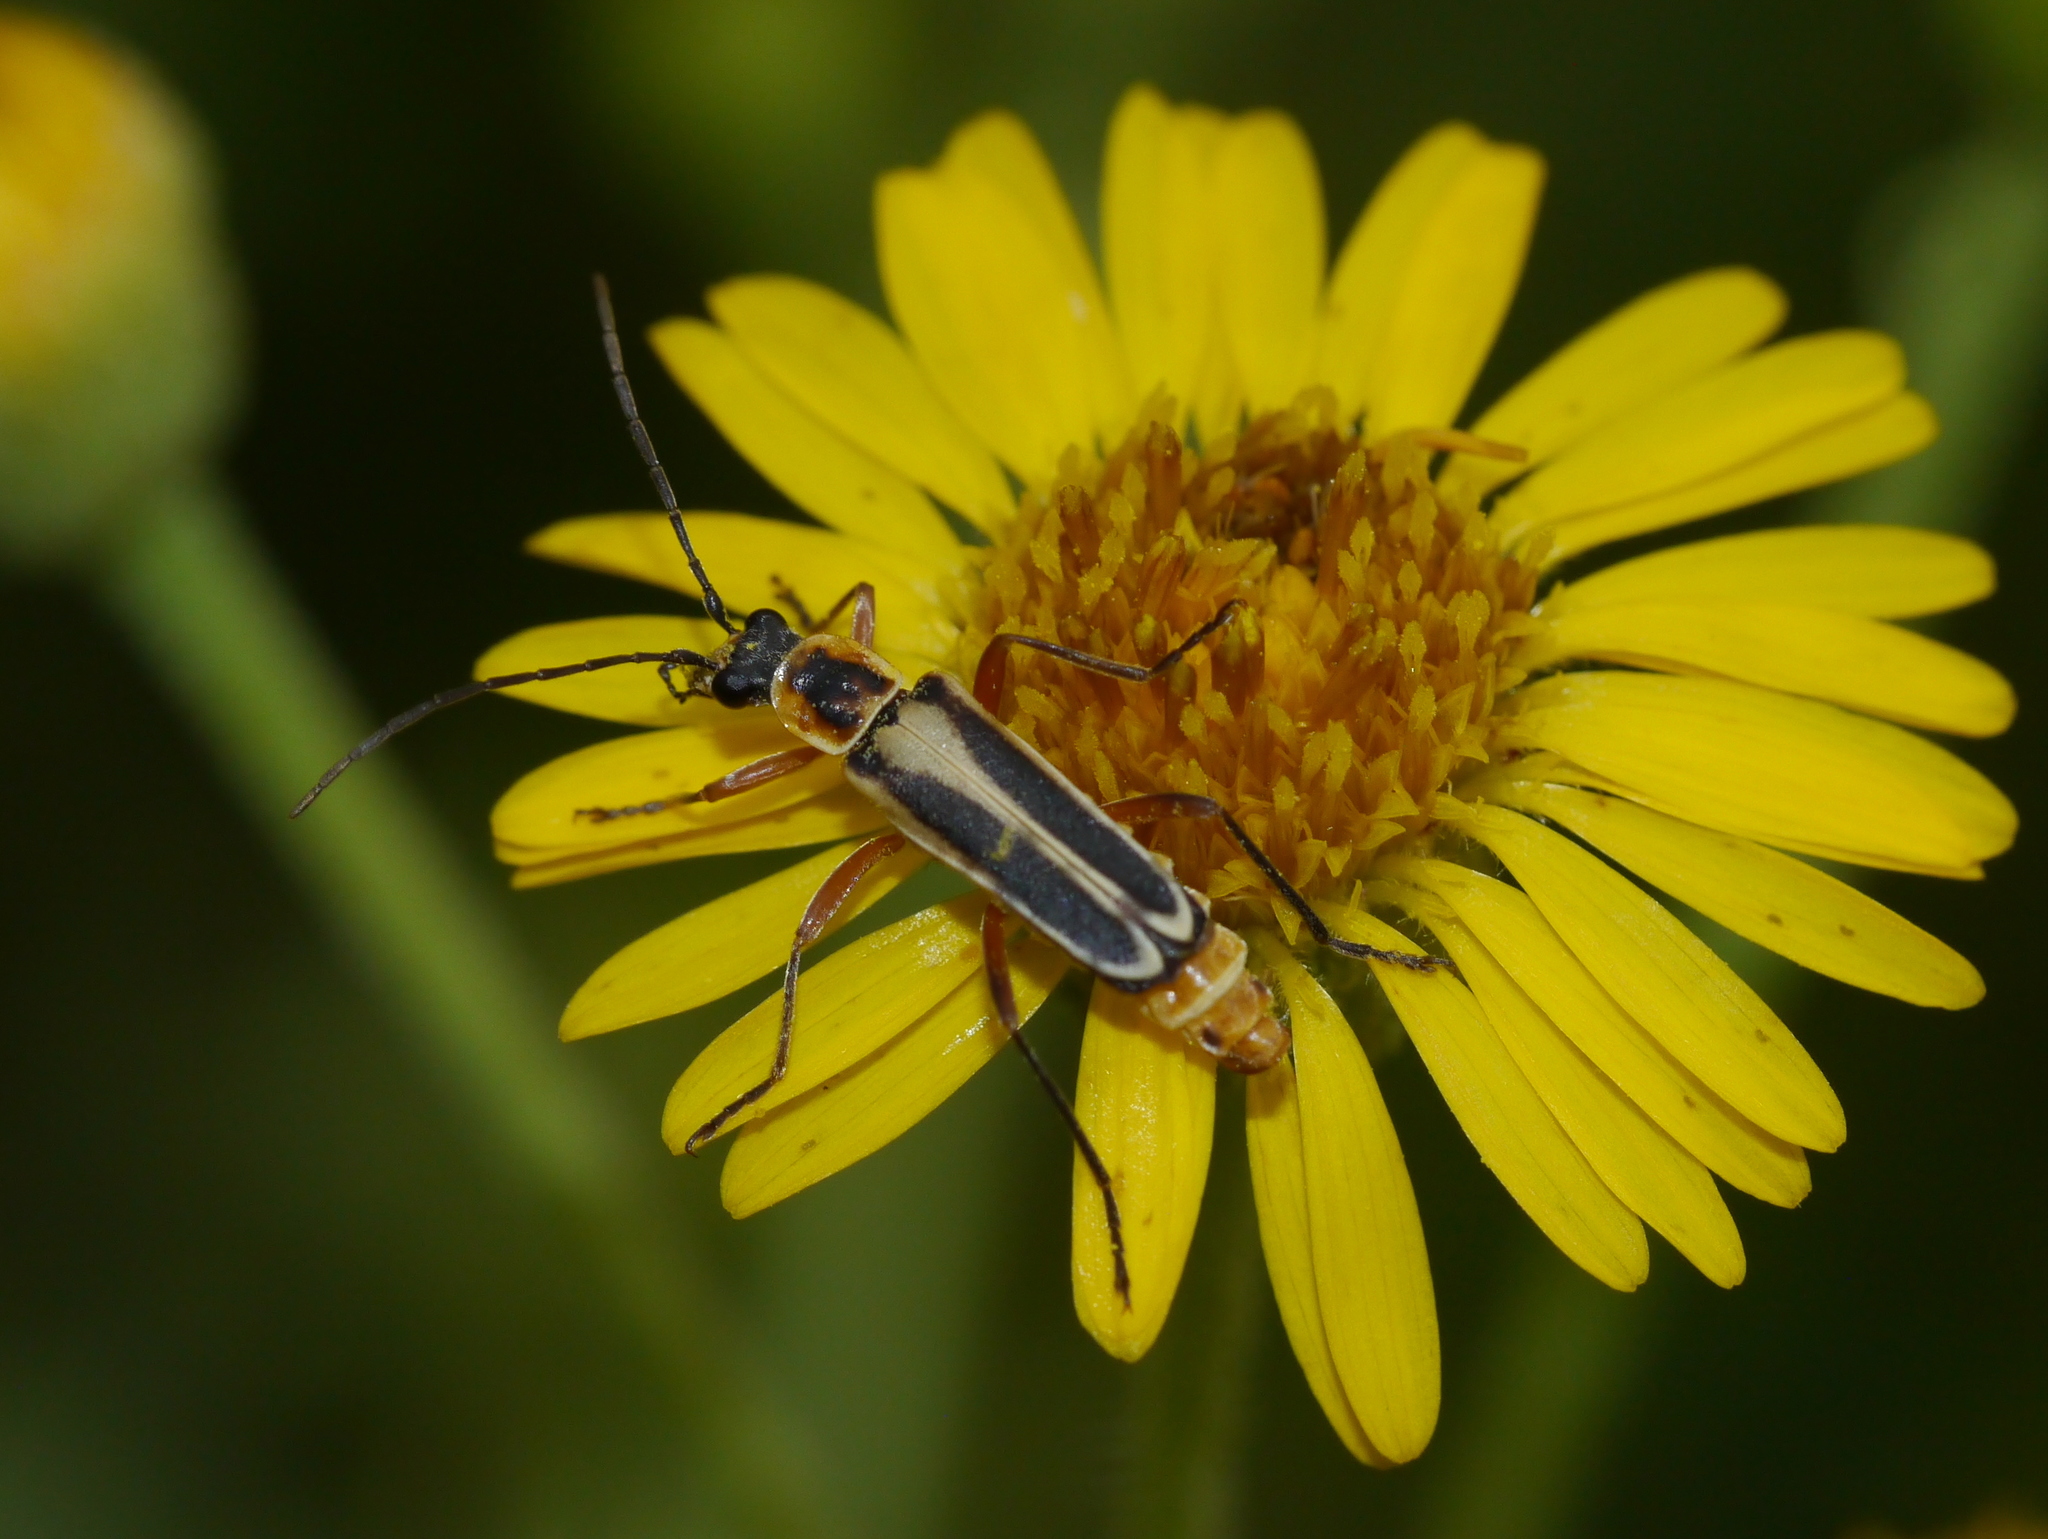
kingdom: Animalia
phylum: Arthropoda
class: Insecta
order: Coleoptera
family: Cantharidae
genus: Chauliognathus
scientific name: Chauliognathus lewisi
